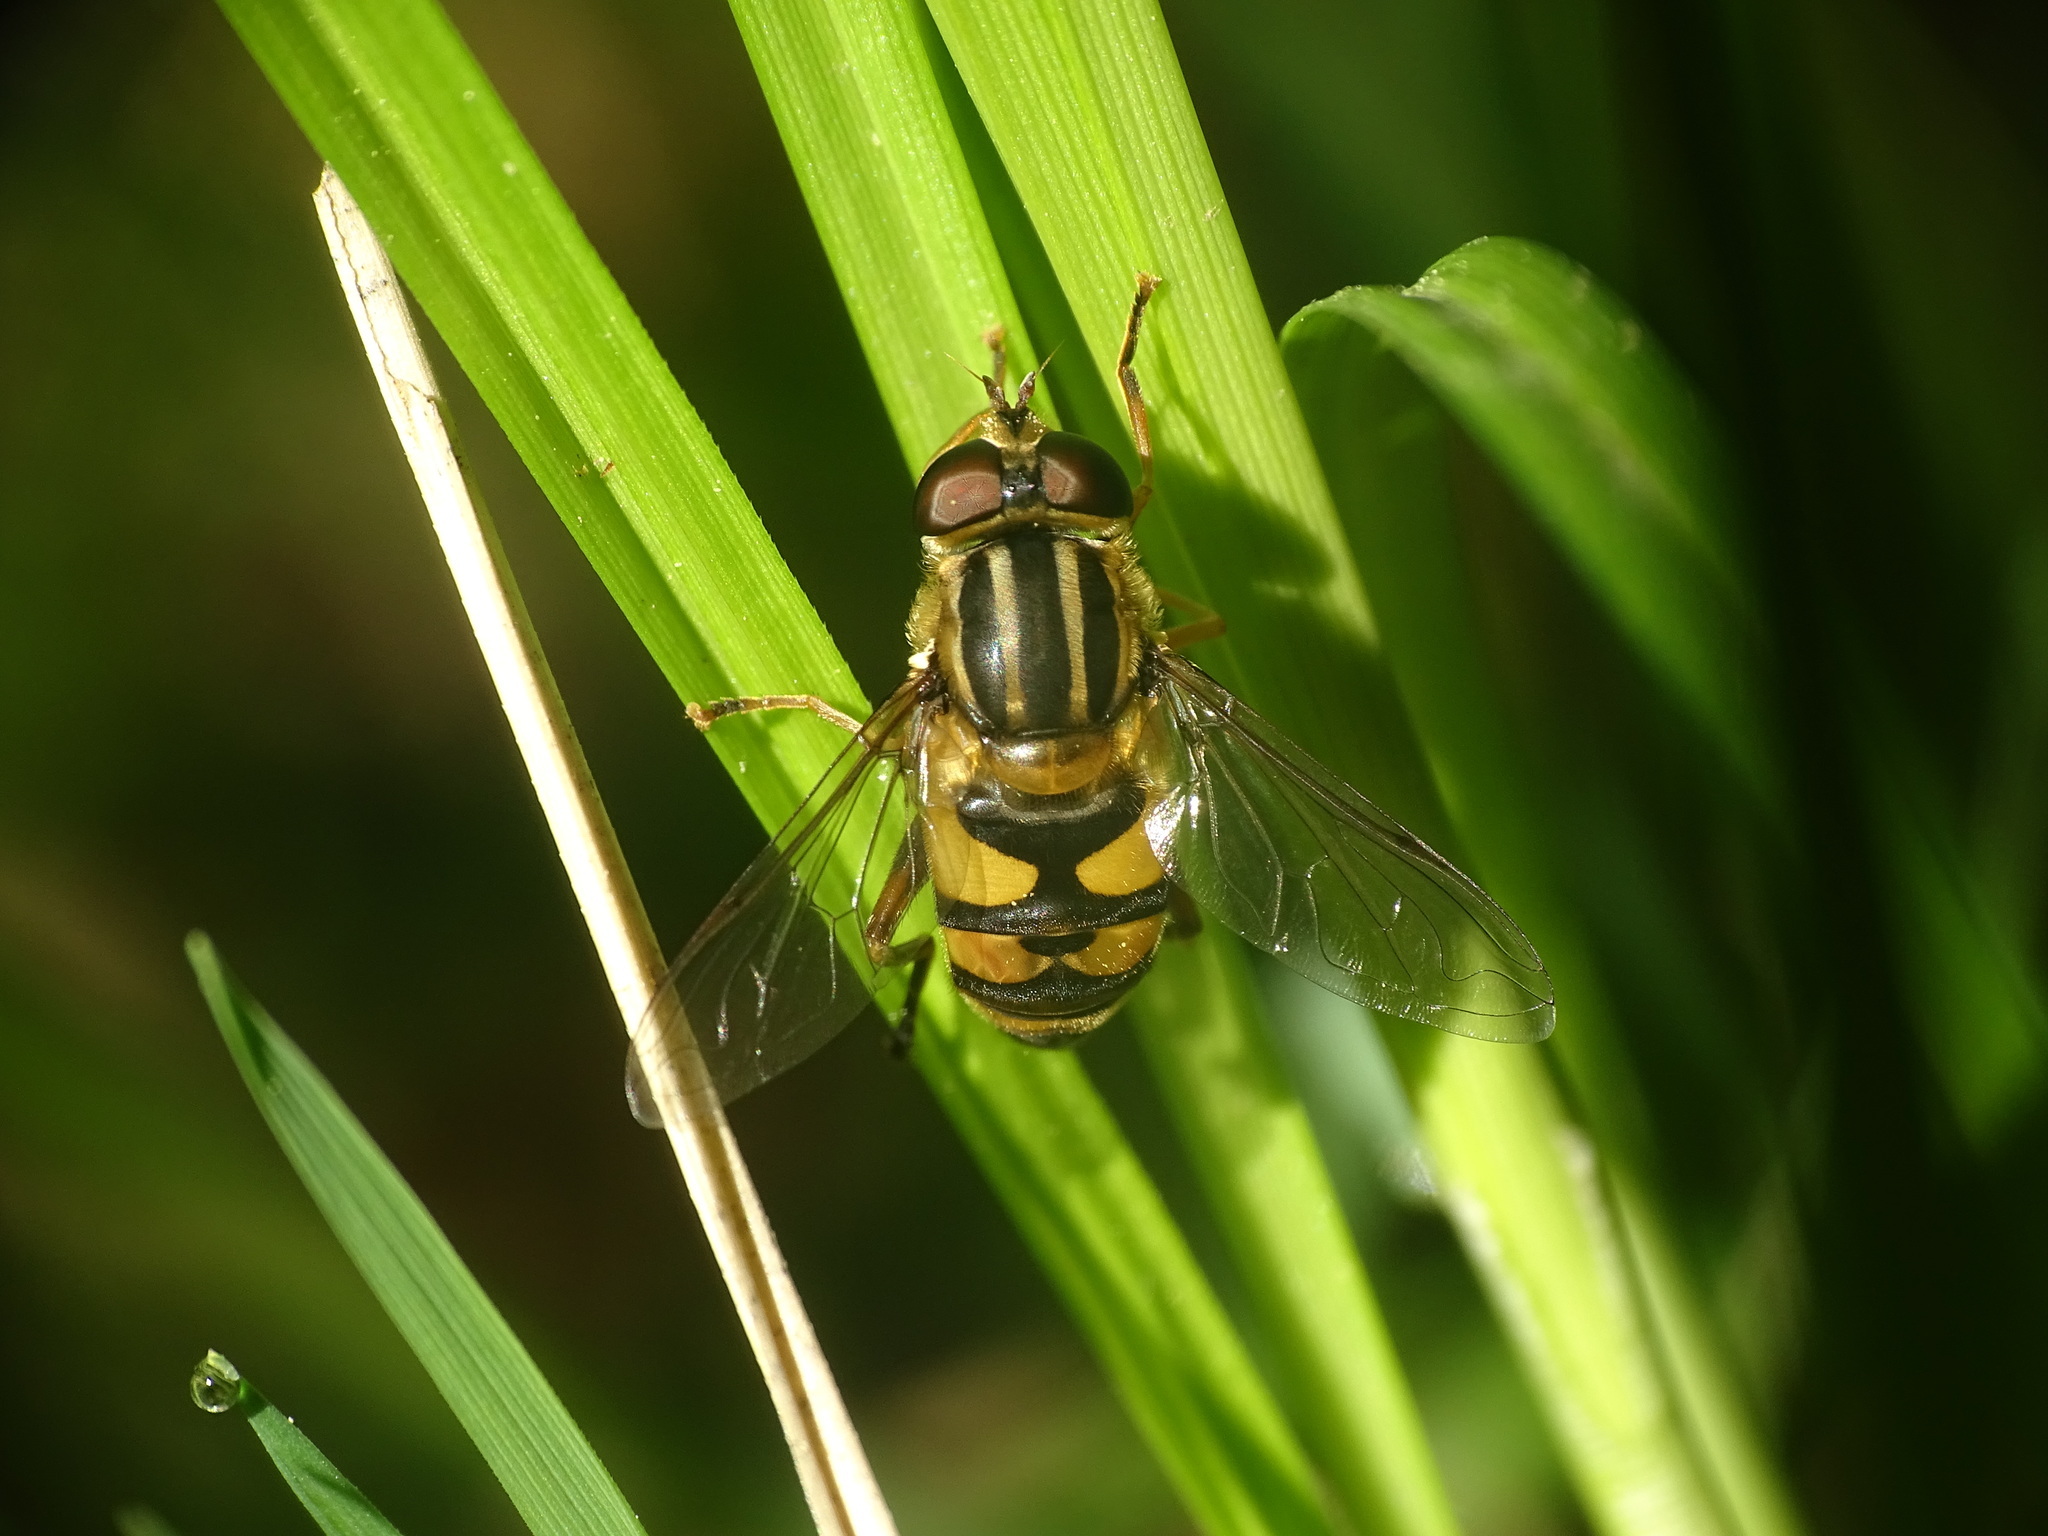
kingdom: Animalia
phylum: Arthropoda
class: Insecta
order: Diptera
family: Syrphidae
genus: Helophilus
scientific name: Helophilus fasciatus
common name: Narrow-headed marsh fly
